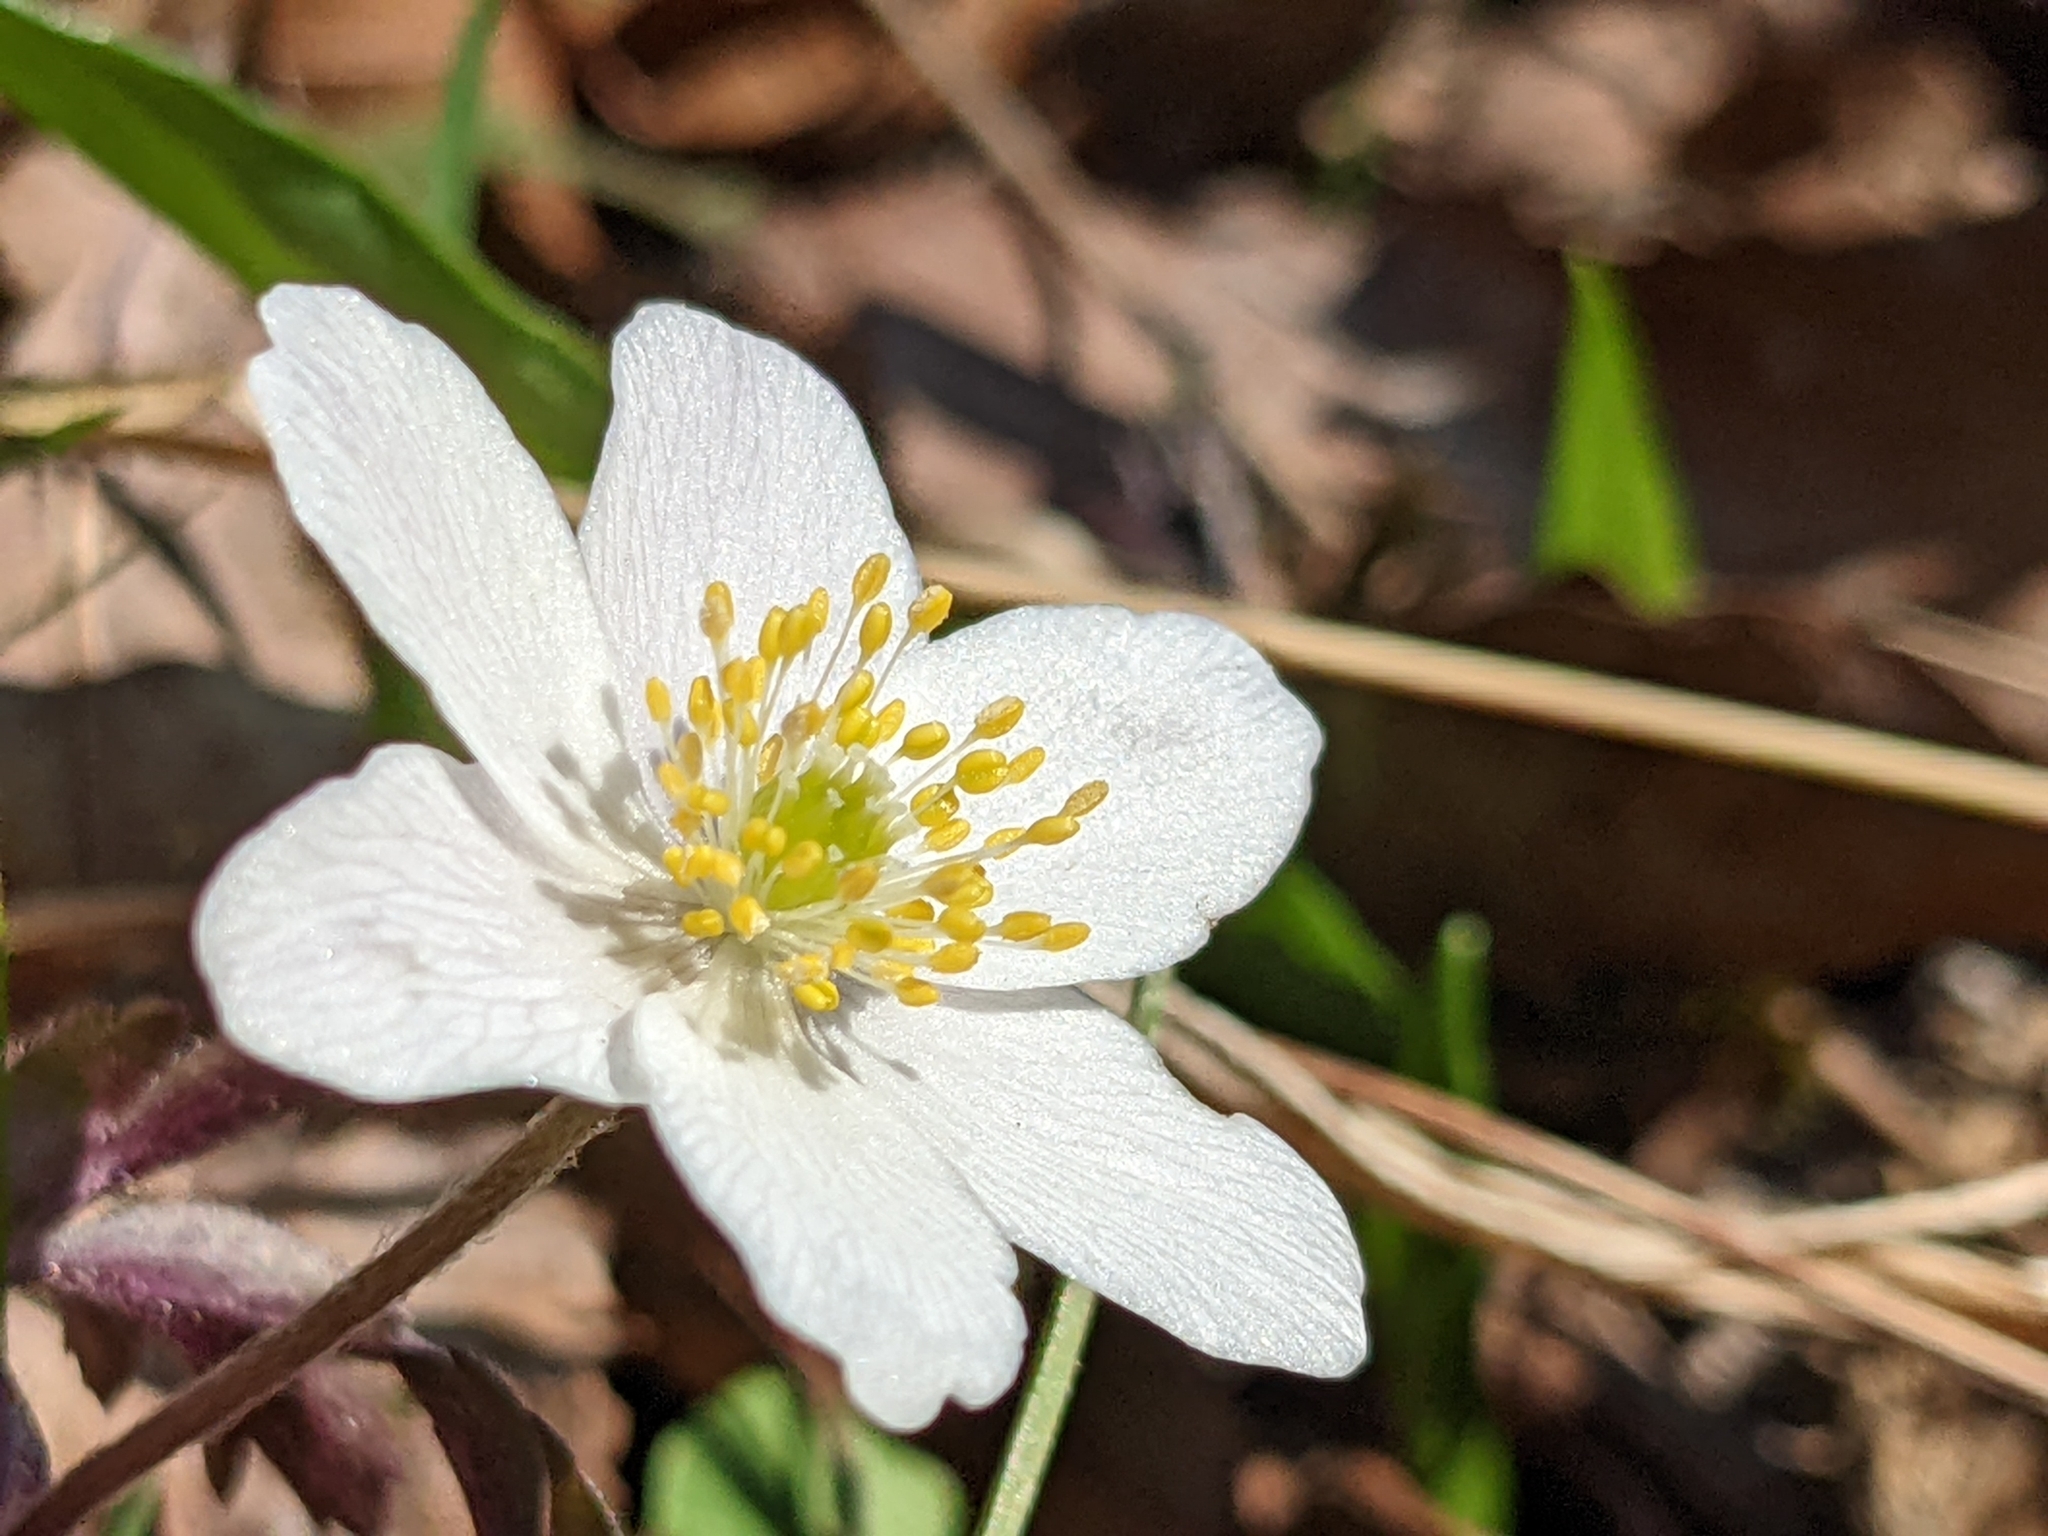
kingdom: Plantae
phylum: Tracheophyta
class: Magnoliopsida
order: Ranunculales
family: Ranunculaceae
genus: Anemone
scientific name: Anemone nemorosa
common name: Wood anemone
